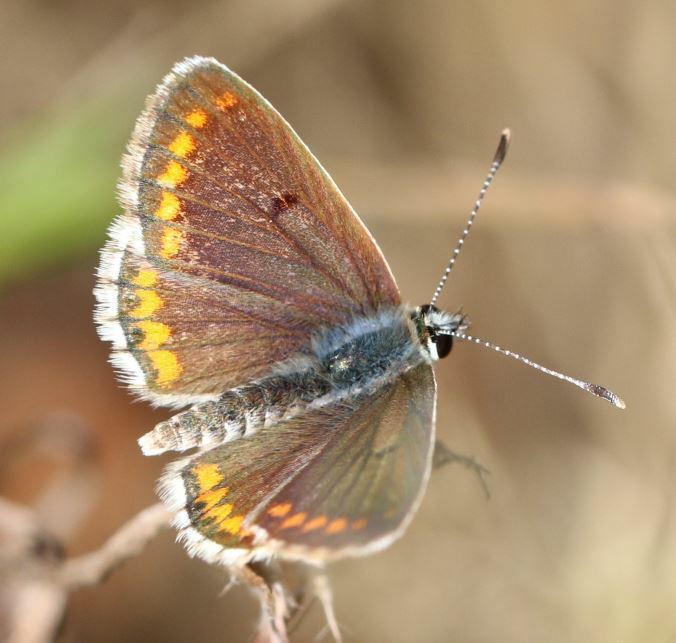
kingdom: Animalia
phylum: Arthropoda
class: Insecta
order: Lepidoptera
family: Lycaenidae
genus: Aricia
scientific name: Aricia agestis
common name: Brown argus
